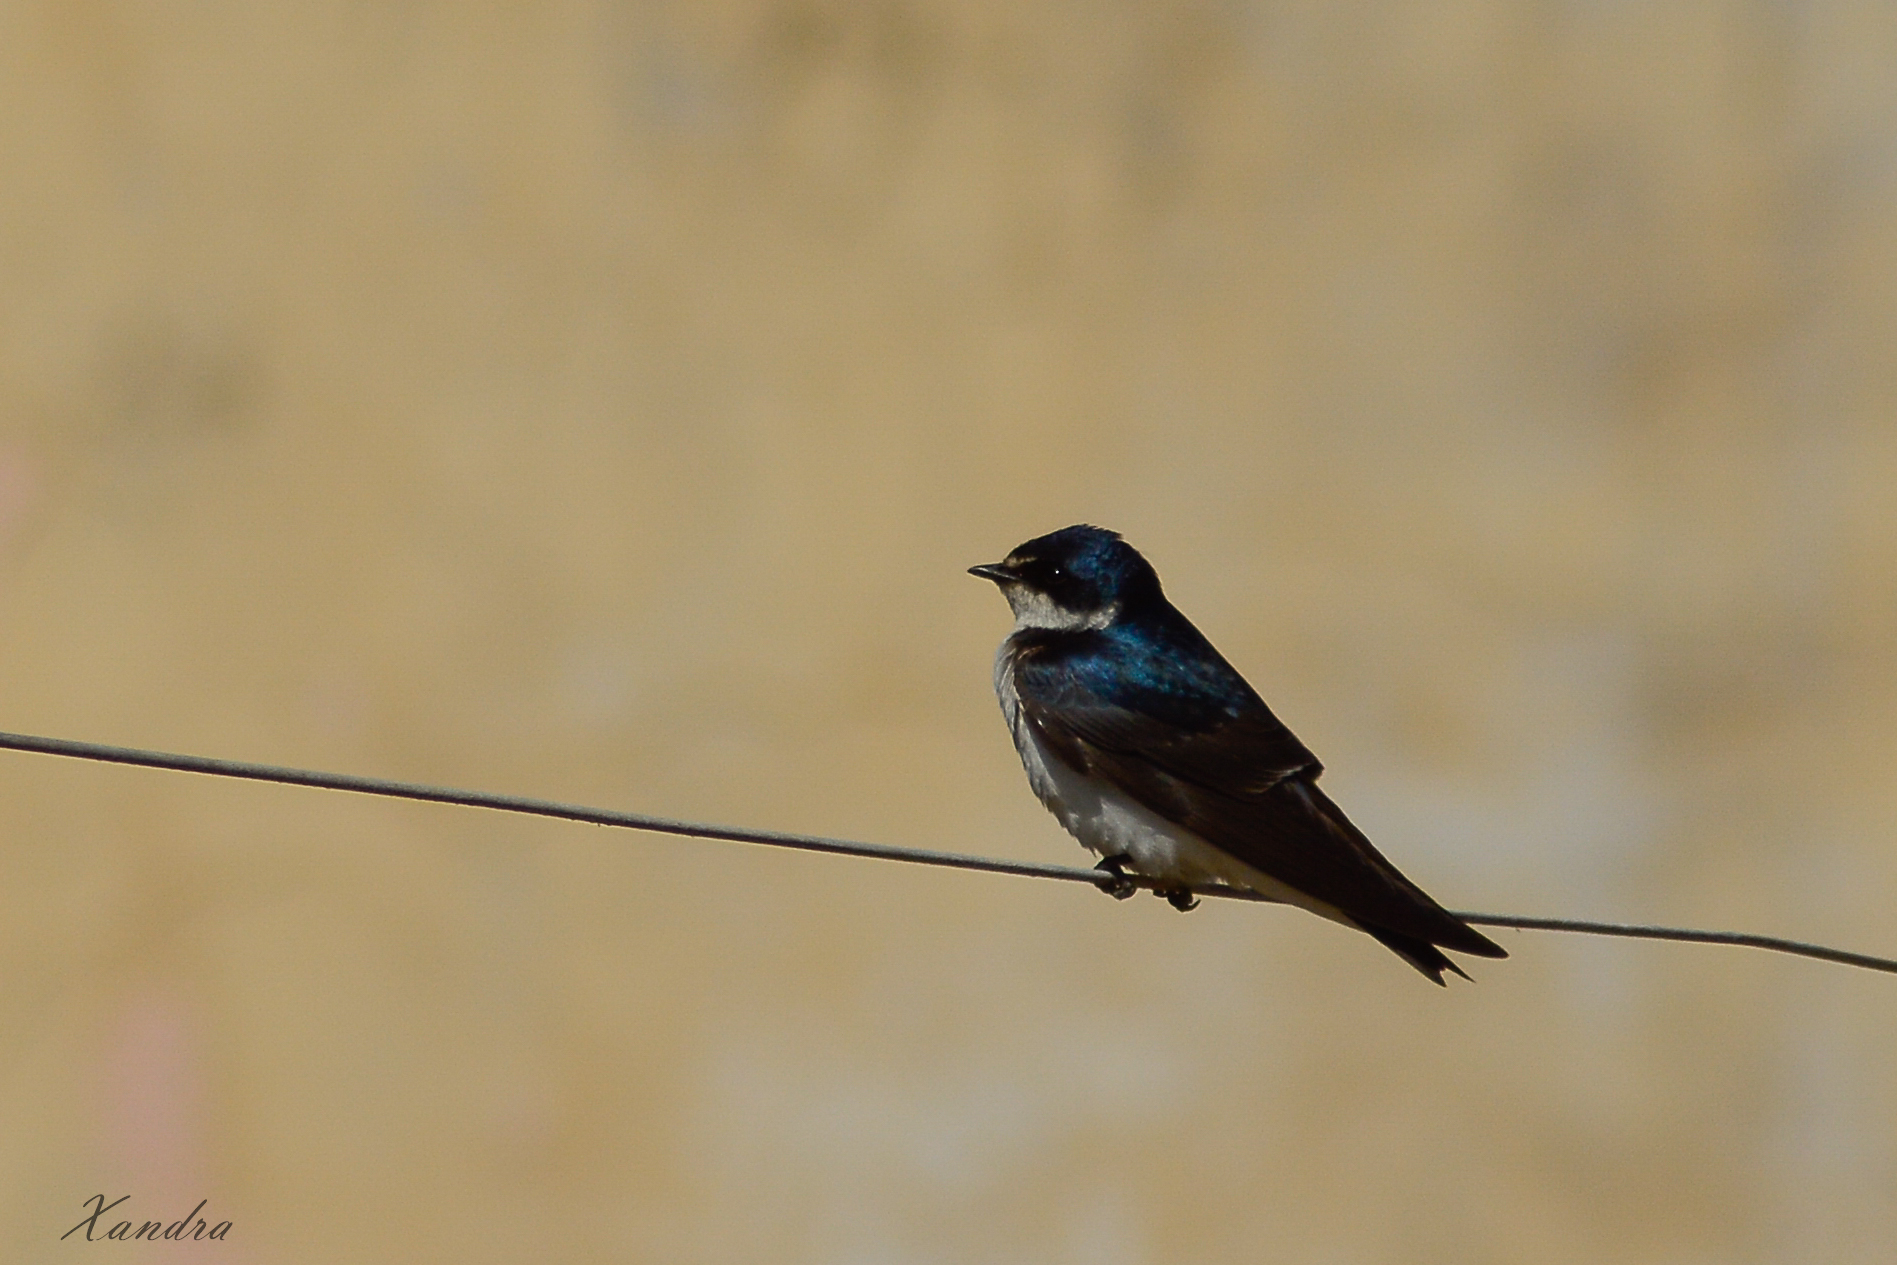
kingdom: Animalia
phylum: Chordata
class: Aves
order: Passeriformes
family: Hirundinidae
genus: Tachycineta
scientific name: Tachycineta leucorrhoa
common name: White-rumped swallow
